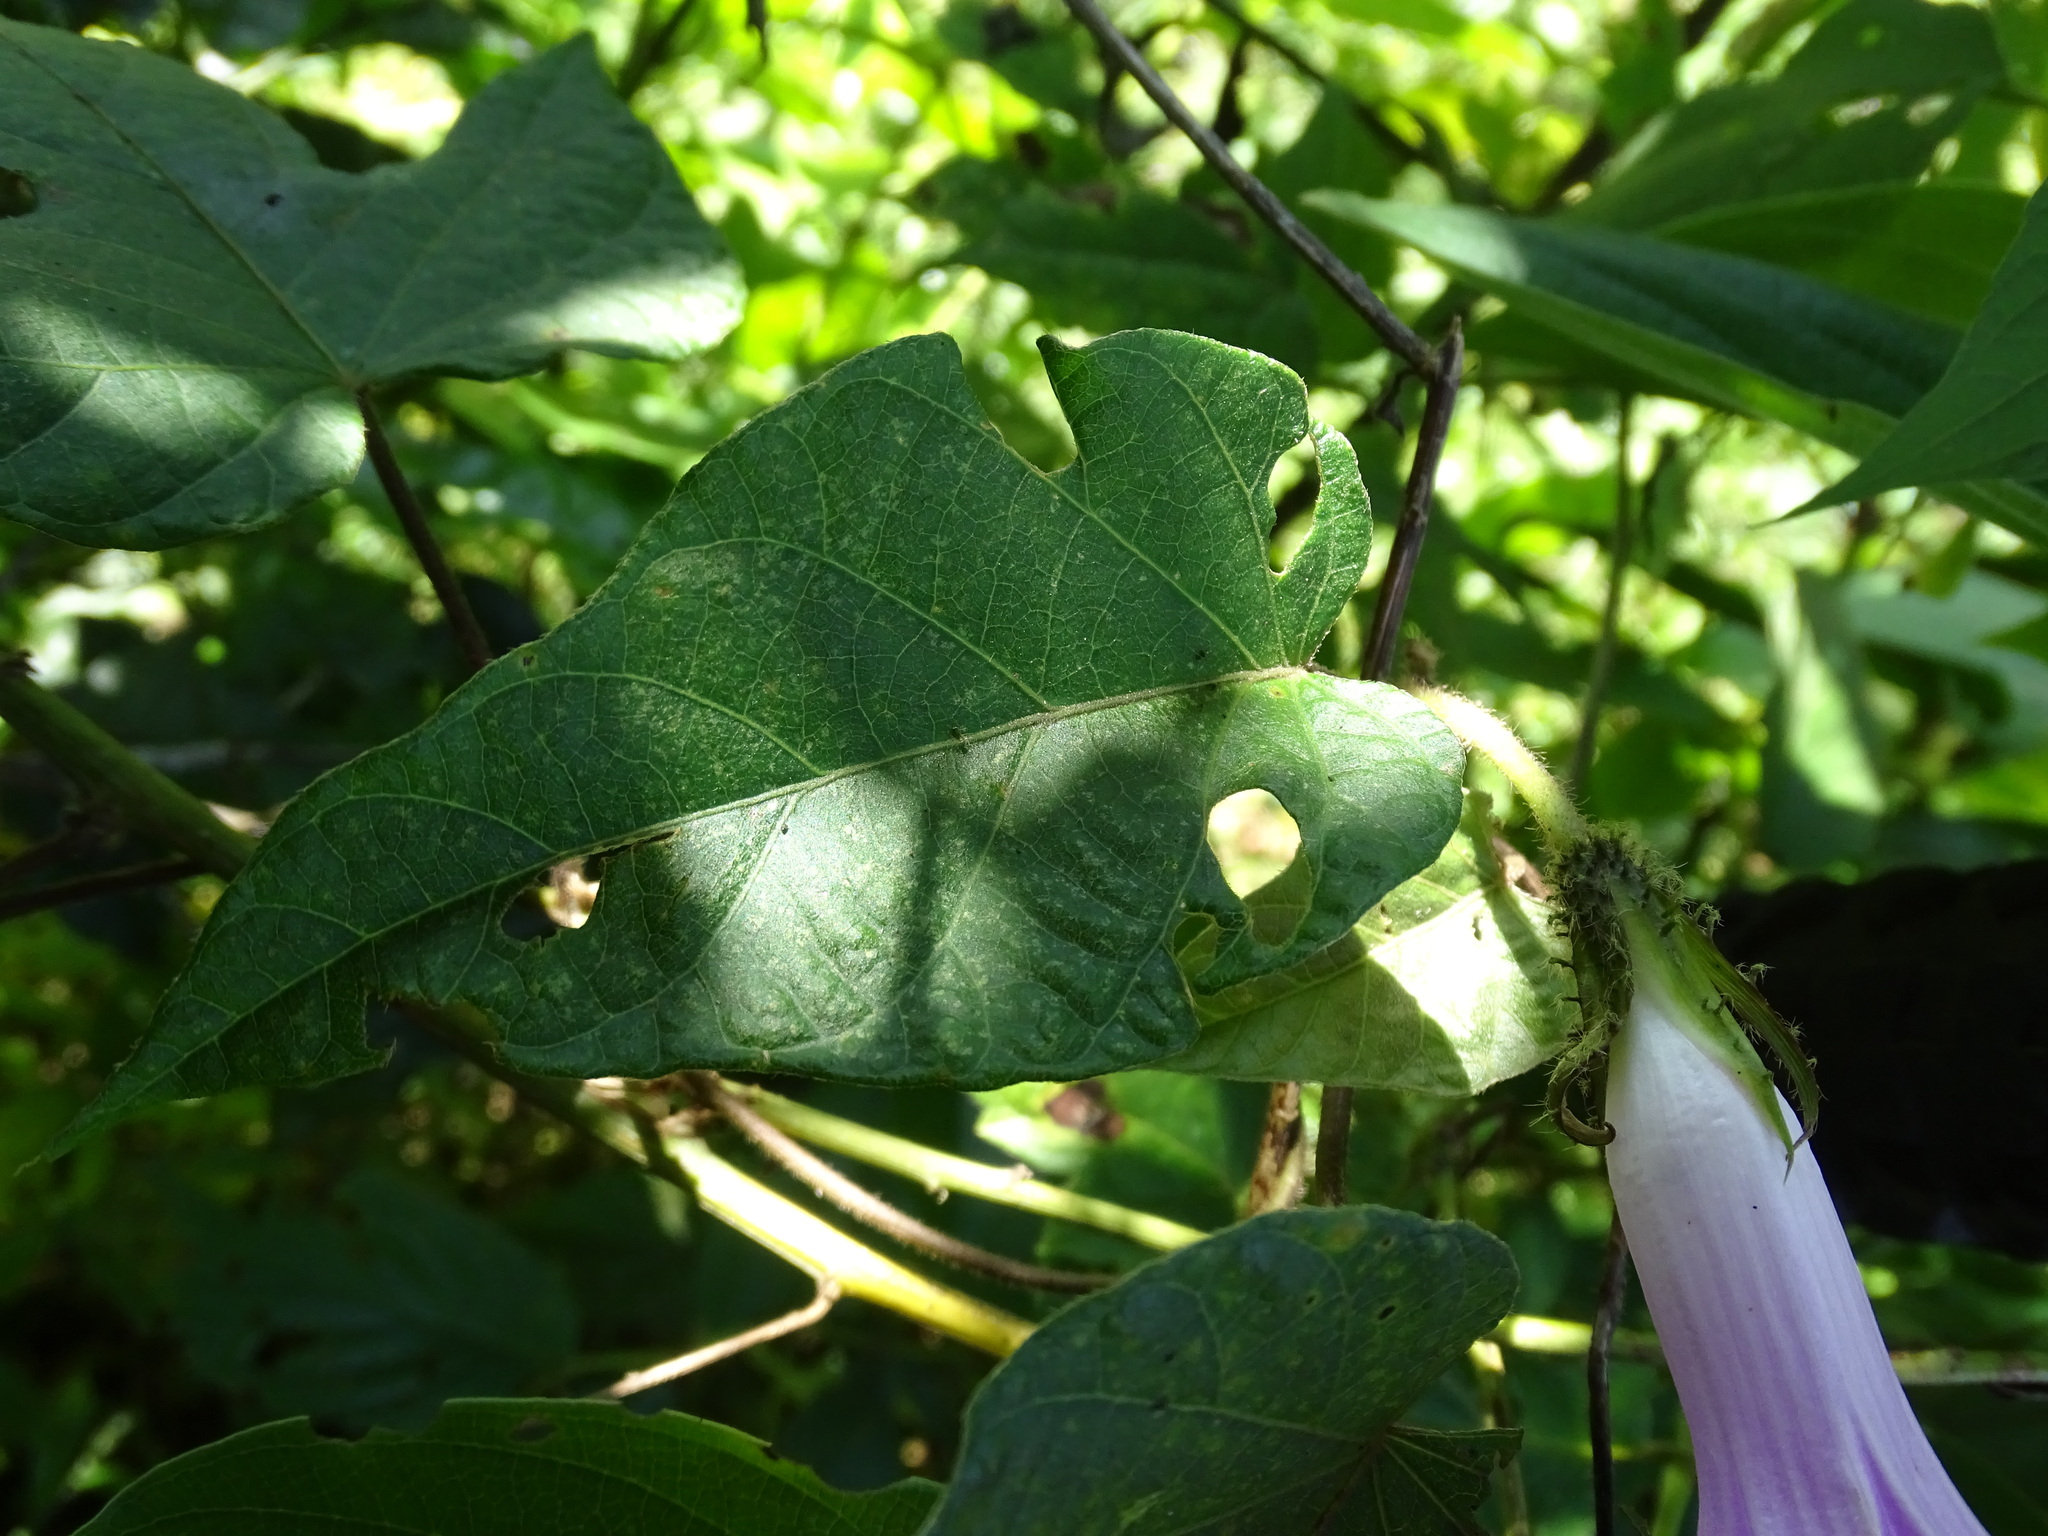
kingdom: Plantae
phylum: Tracheophyta
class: Magnoliopsida
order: Solanales
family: Convolvulaceae
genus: Ipomoea
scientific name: Ipomoea silvicola
